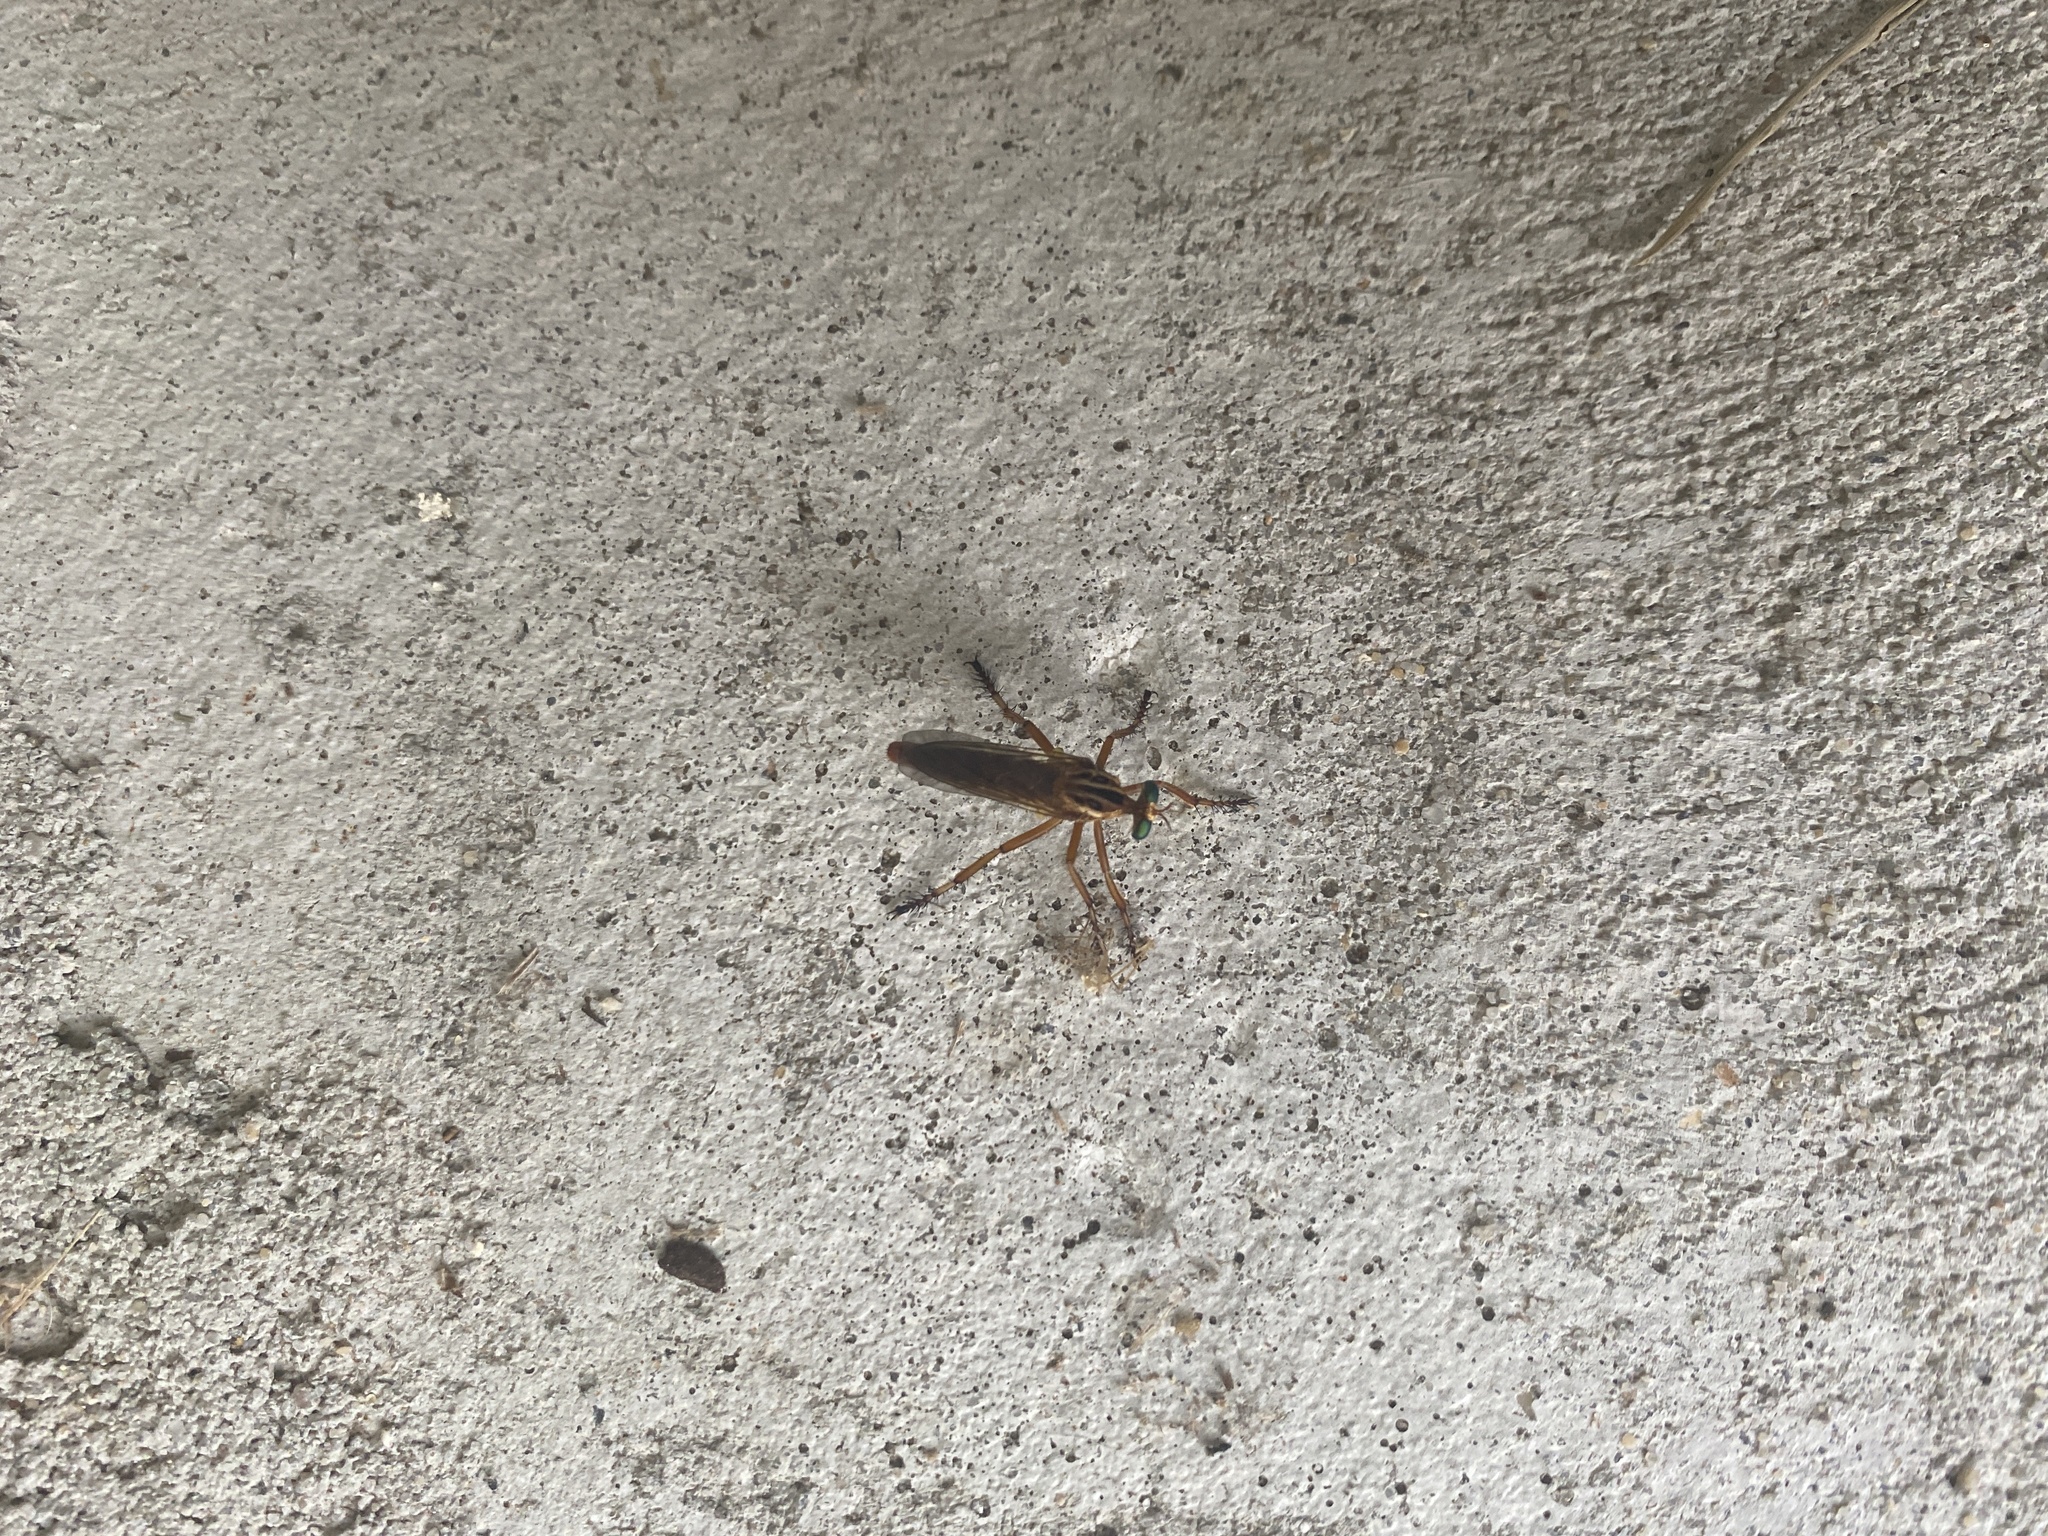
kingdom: Animalia
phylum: Arthropoda
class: Insecta
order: Diptera
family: Asilidae
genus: Diogmites
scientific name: Diogmites neoternatus
